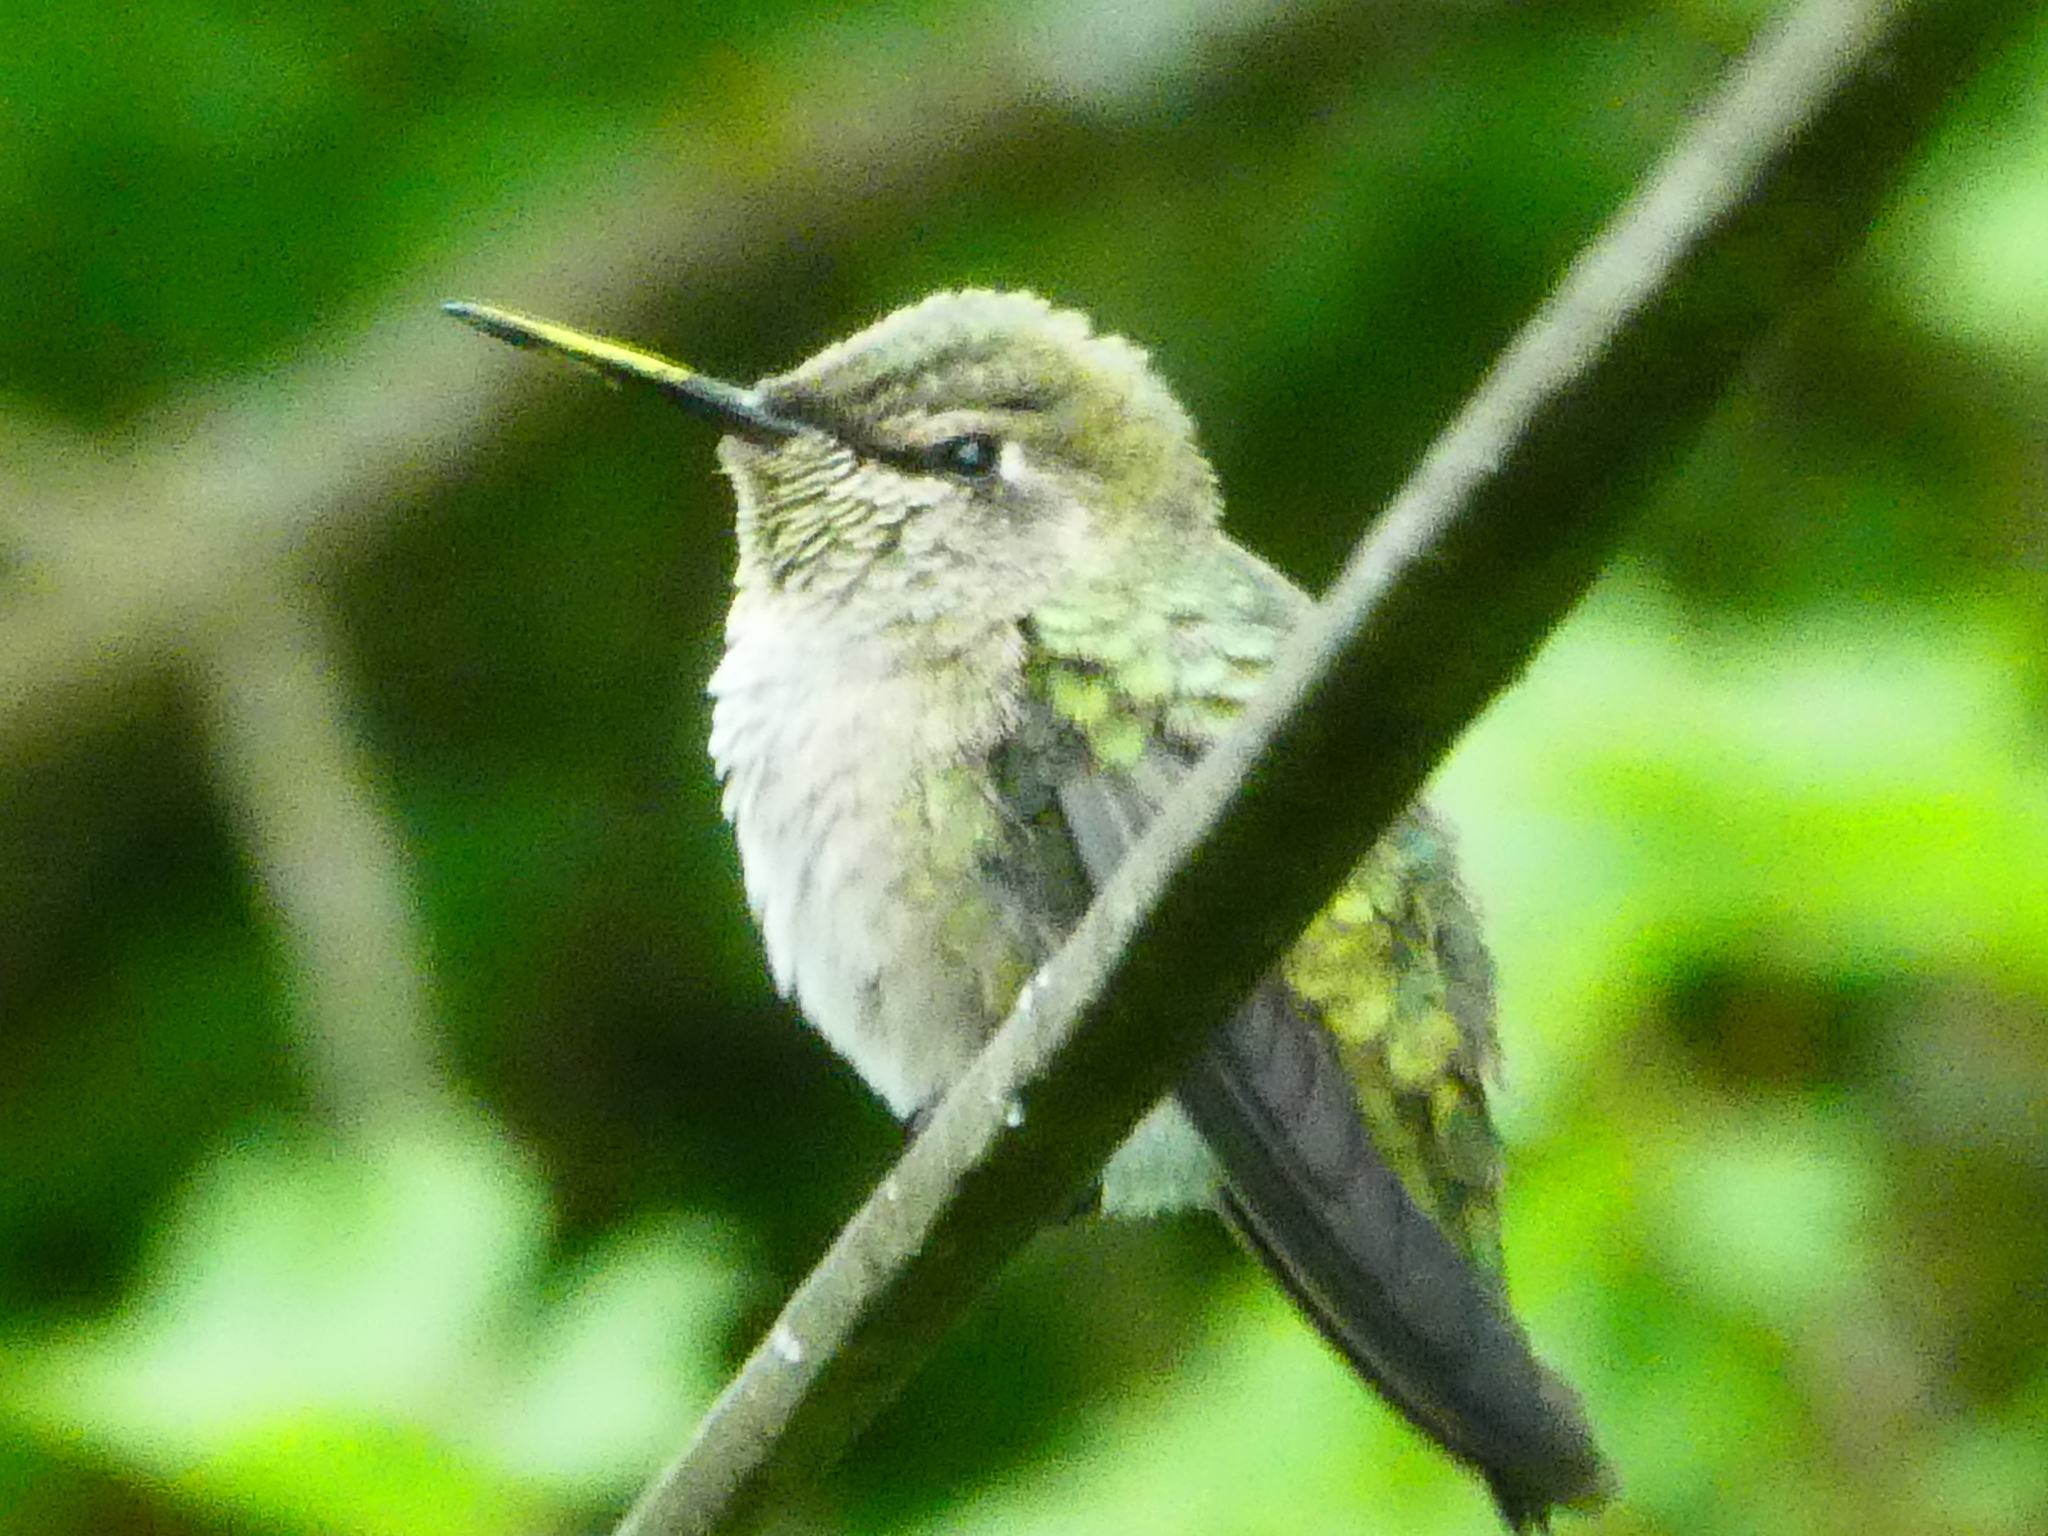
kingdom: Animalia
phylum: Chordata
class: Aves
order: Apodiformes
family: Trochilidae
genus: Calypte
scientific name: Calypte anna
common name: Anna's hummingbird
